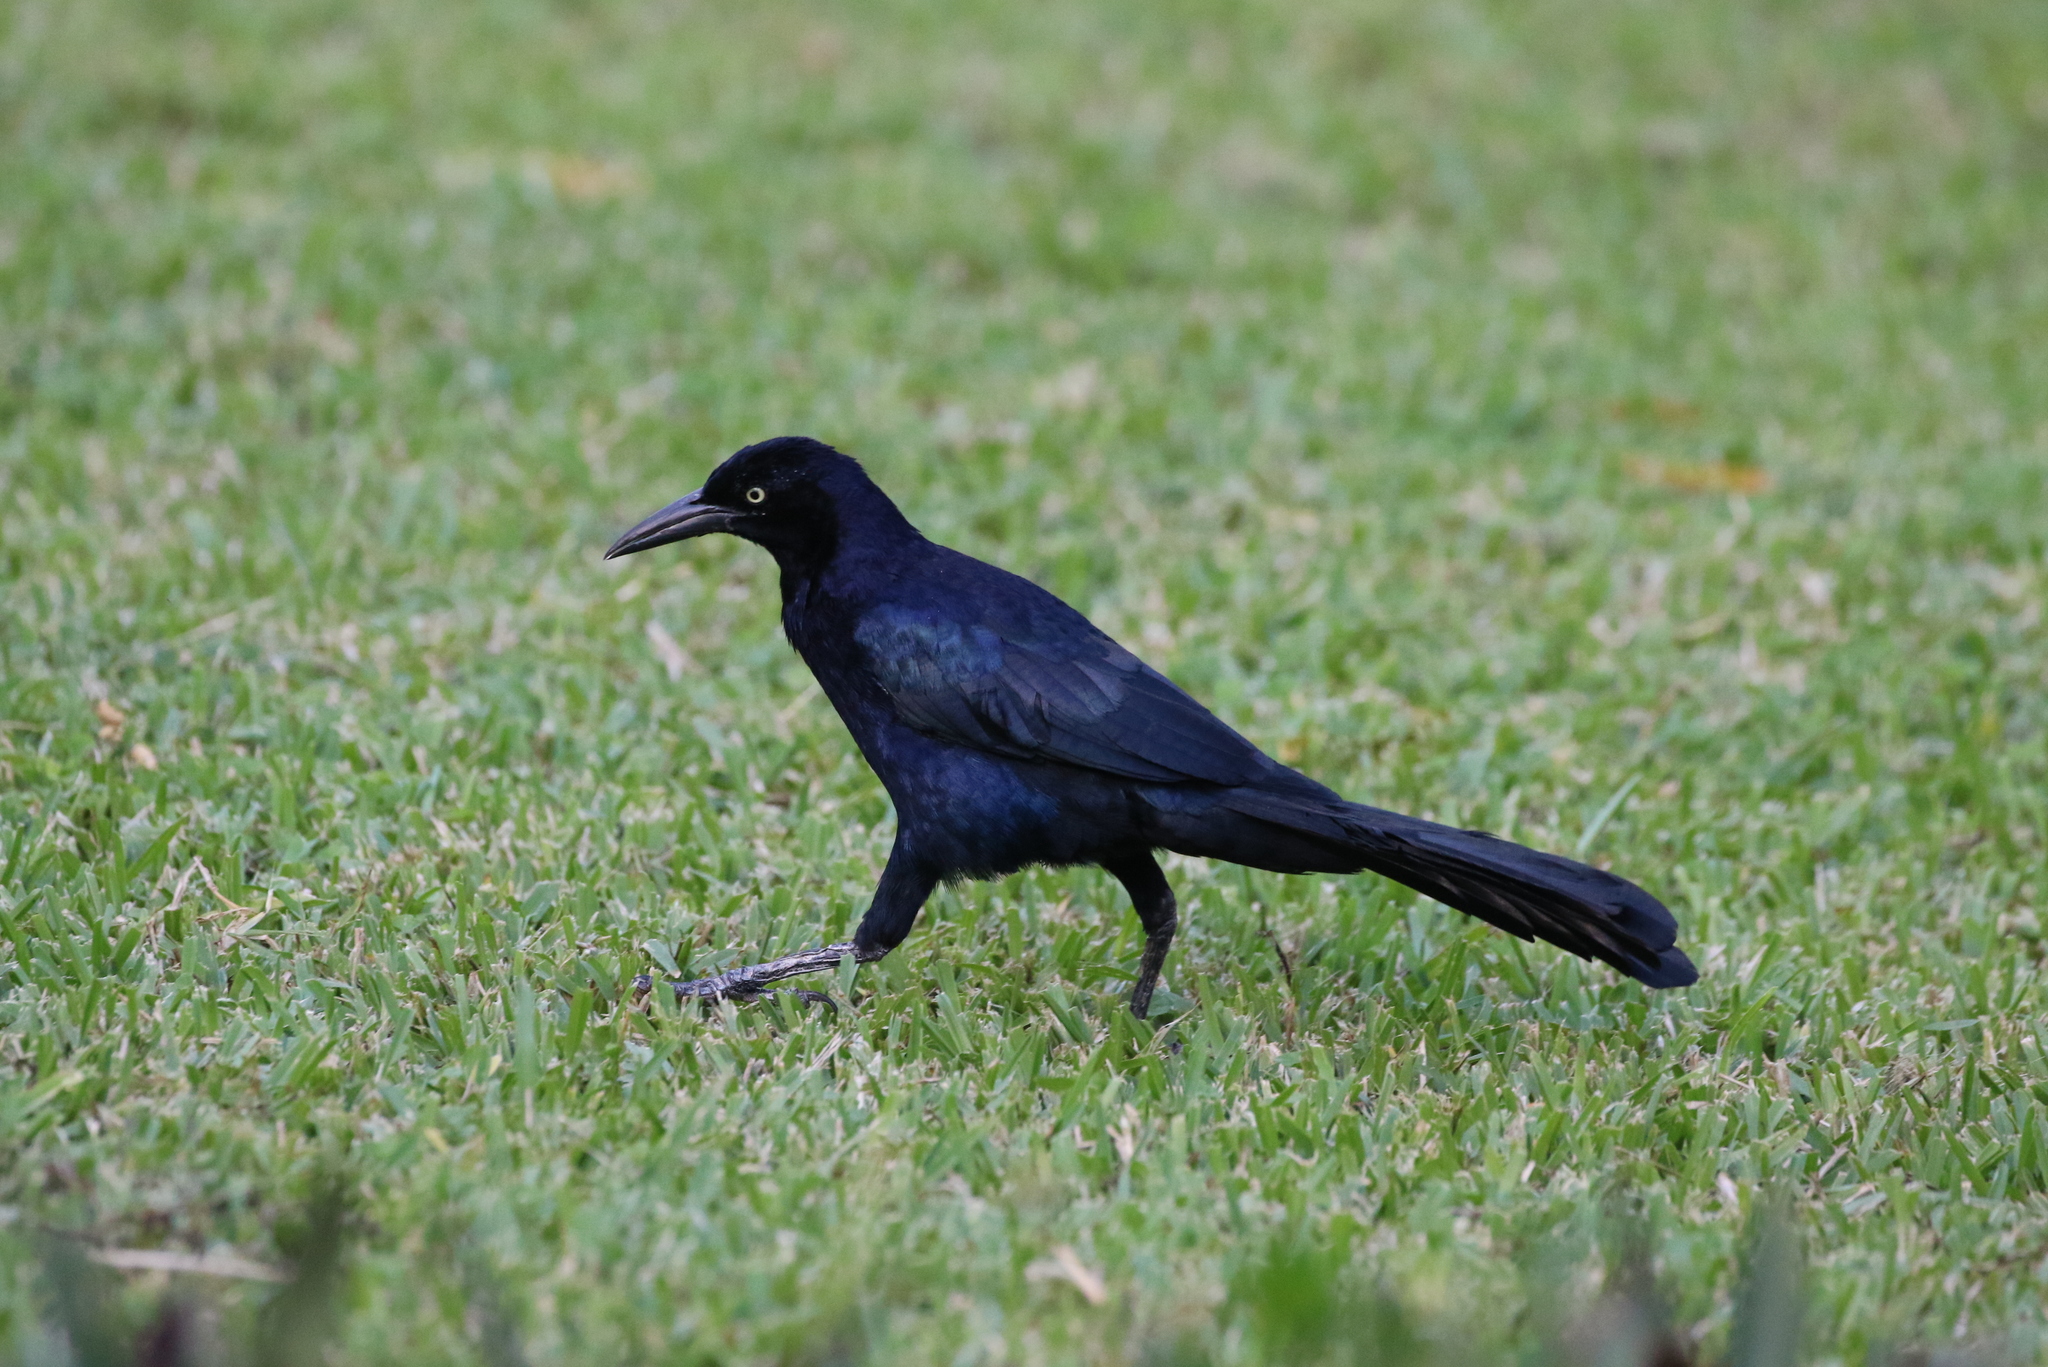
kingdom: Animalia
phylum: Chordata
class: Aves
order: Passeriformes
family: Icteridae
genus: Quiscalus
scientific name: Quiscalus mexicanus
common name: Great-tailed grackle
